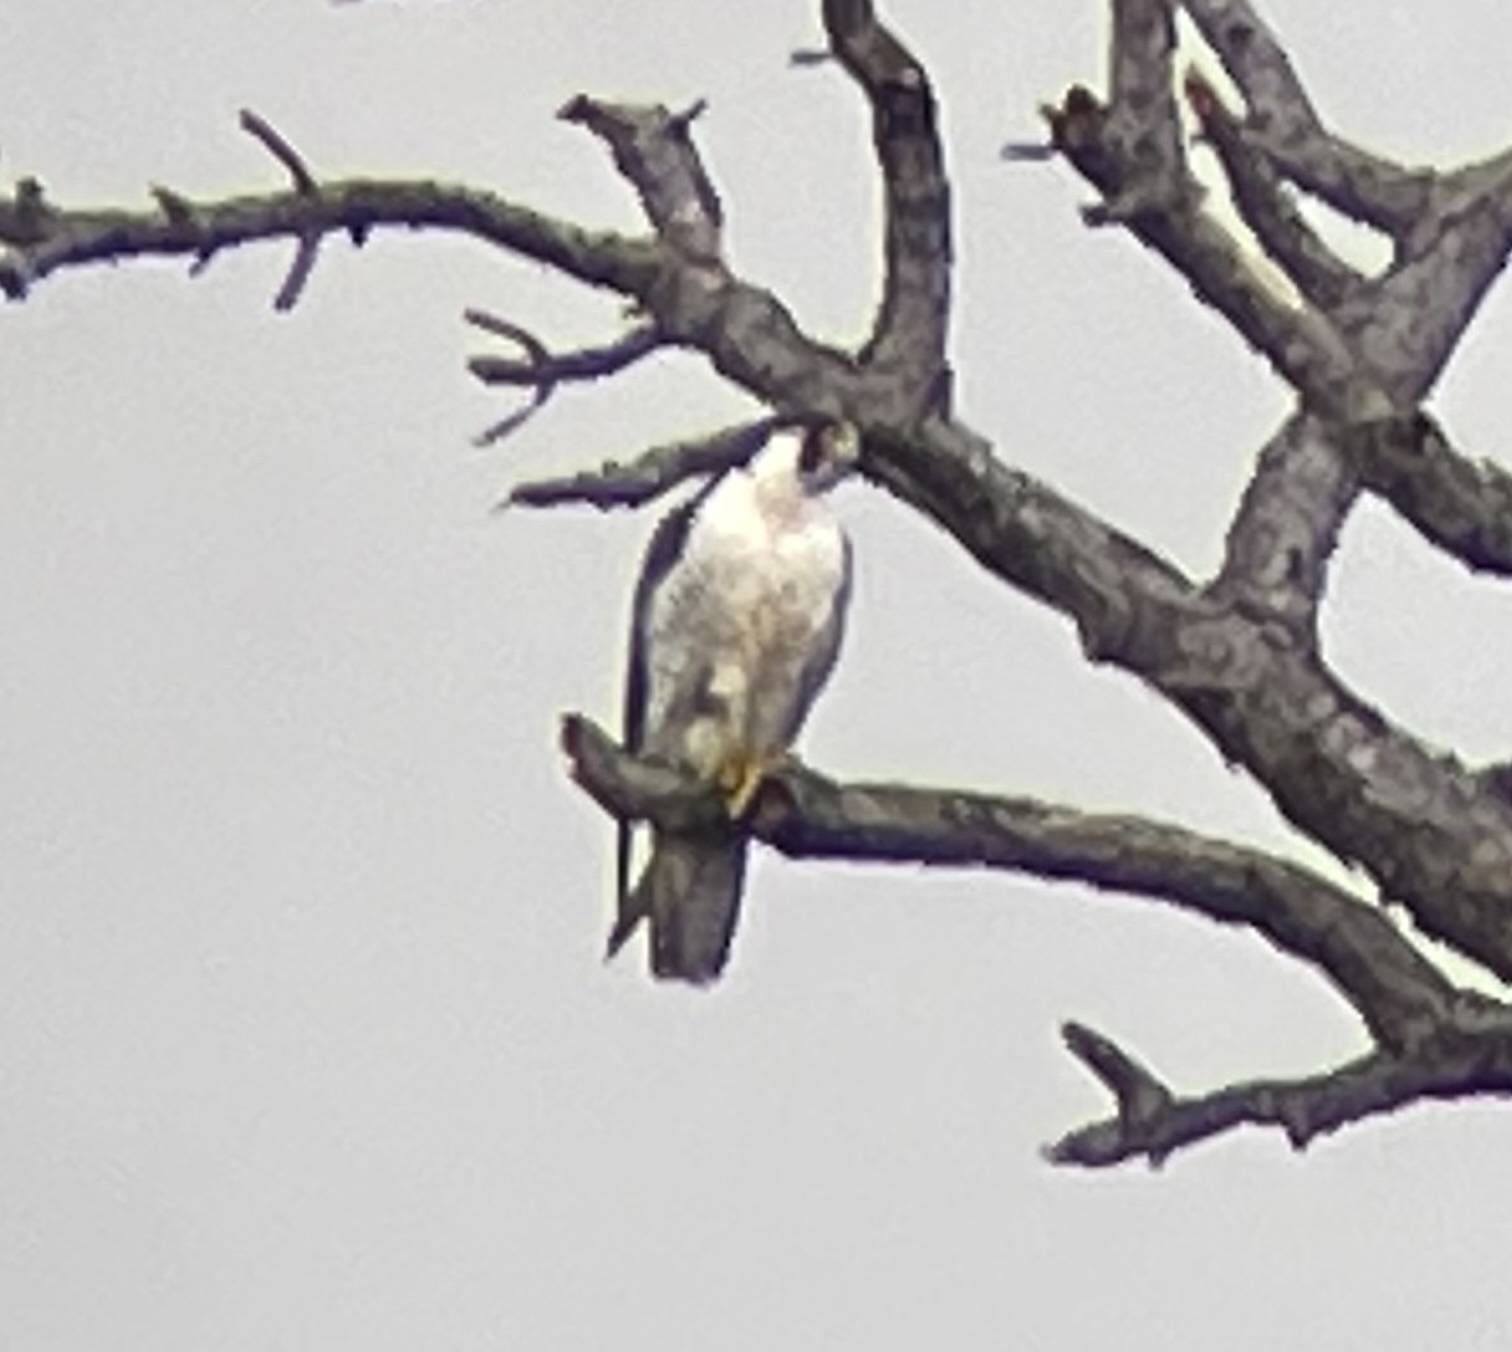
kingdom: Animalia
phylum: Chordata
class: Aves
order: Falconiformes
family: Falconidae
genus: Falco
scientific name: Falco peregrinus
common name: Peregrine falcon
